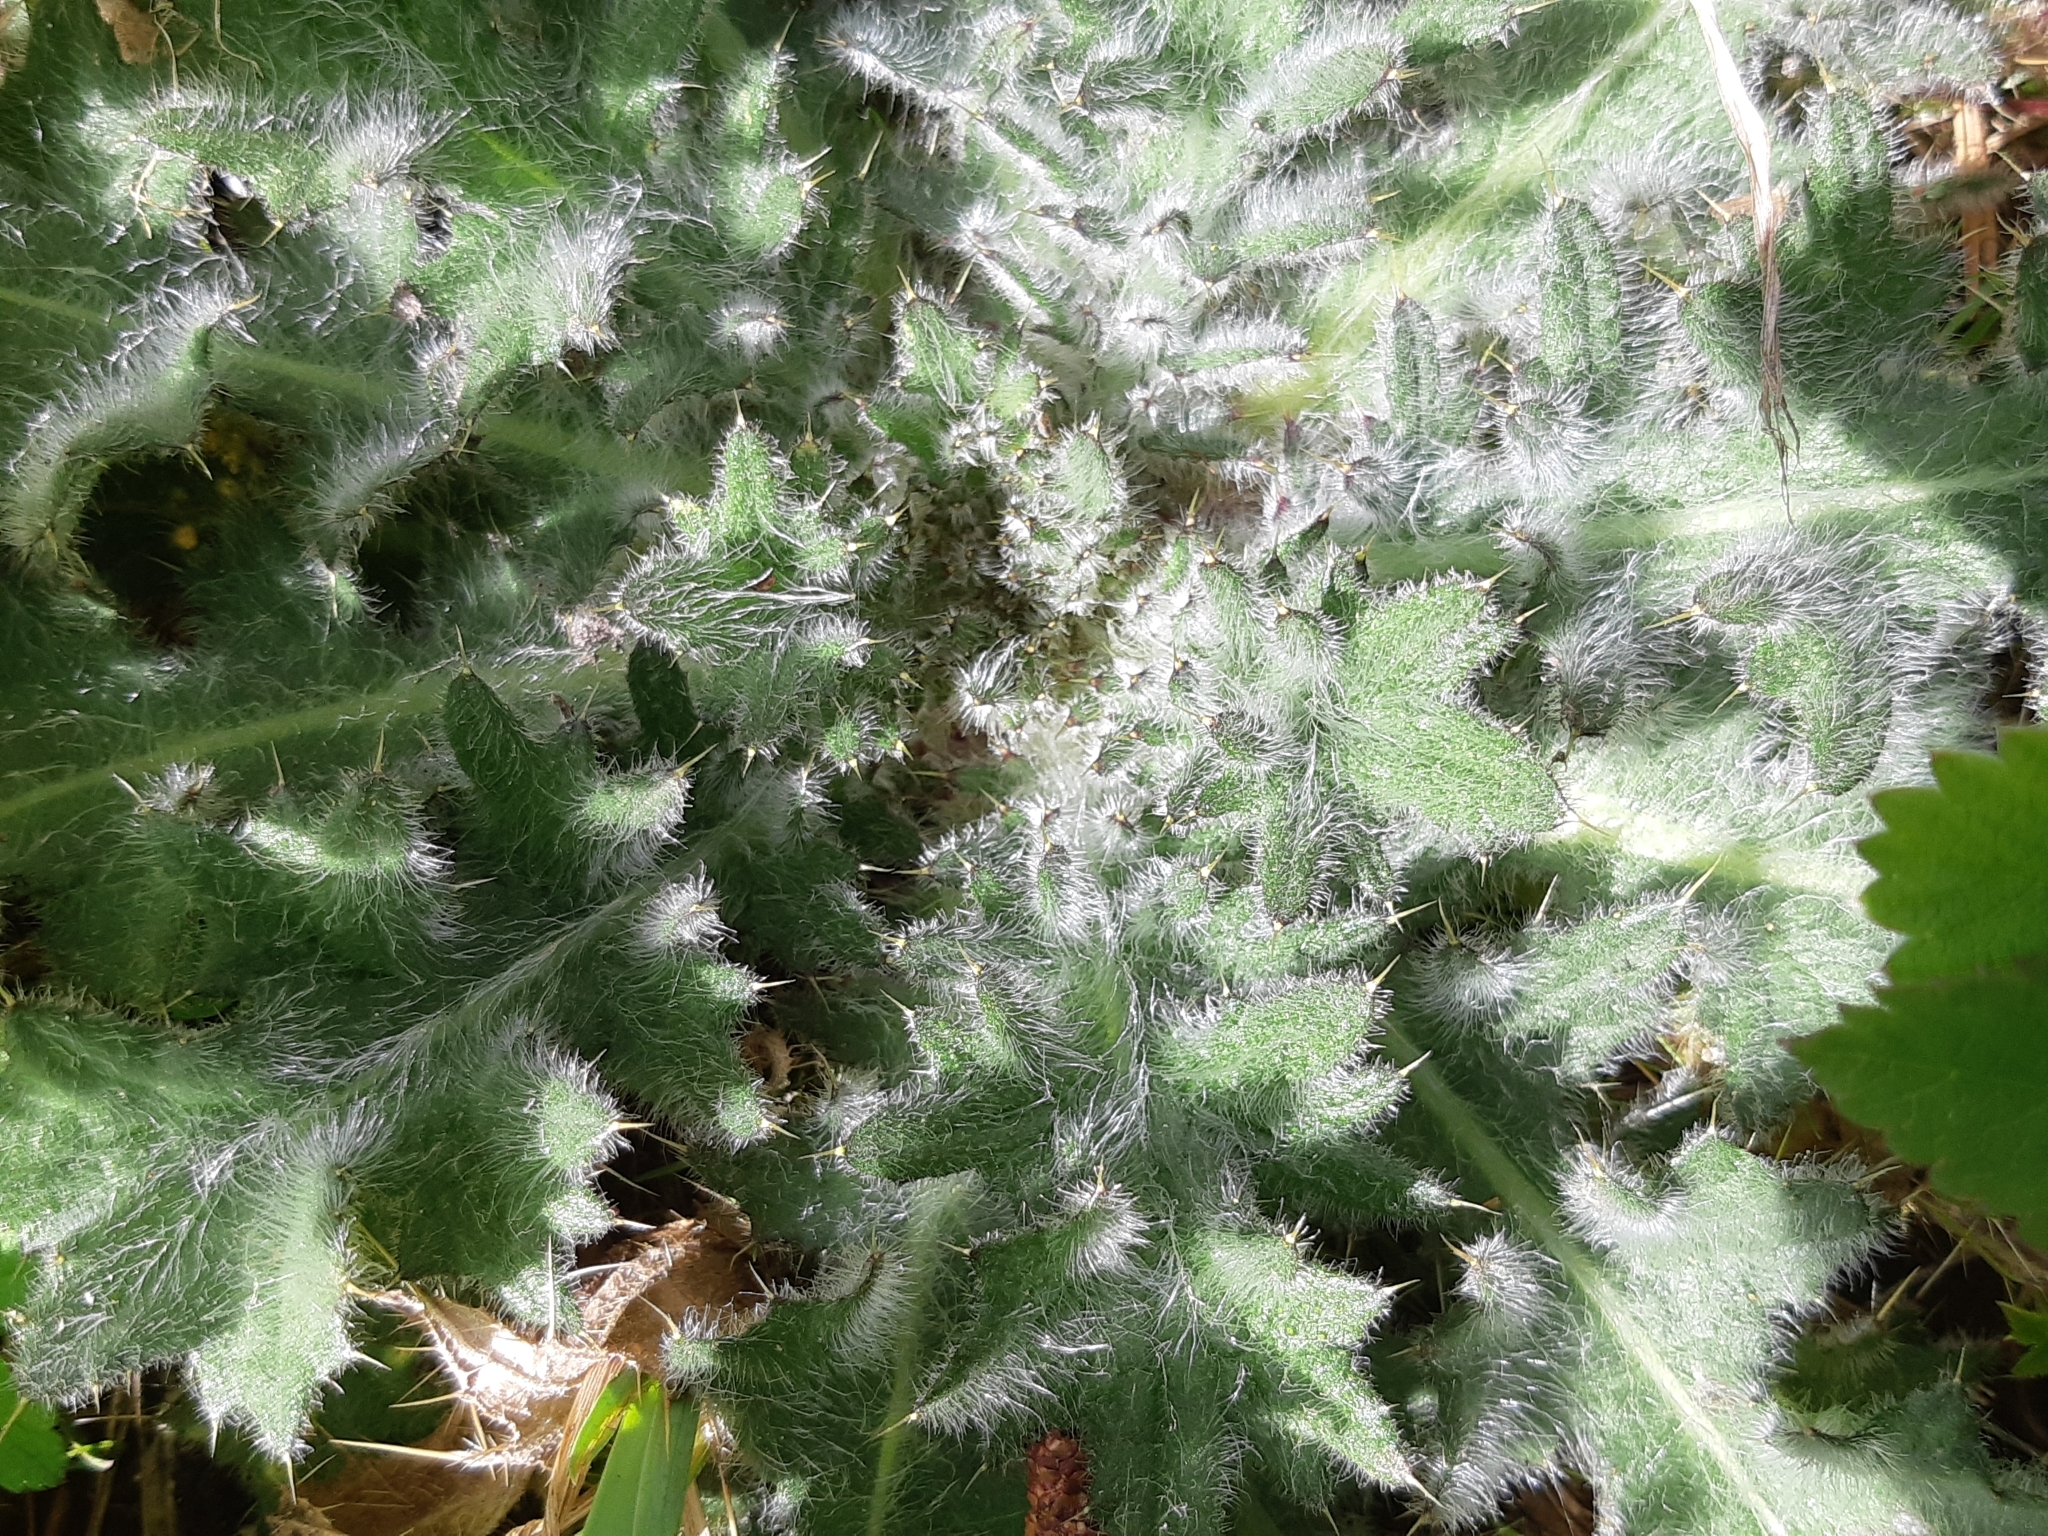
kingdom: Plantae
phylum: Tracheophyta
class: Magnoliopsida
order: Asterales
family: Asteraceae
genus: Cirsium
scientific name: Cirsium vulgare
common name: Bull thistle
